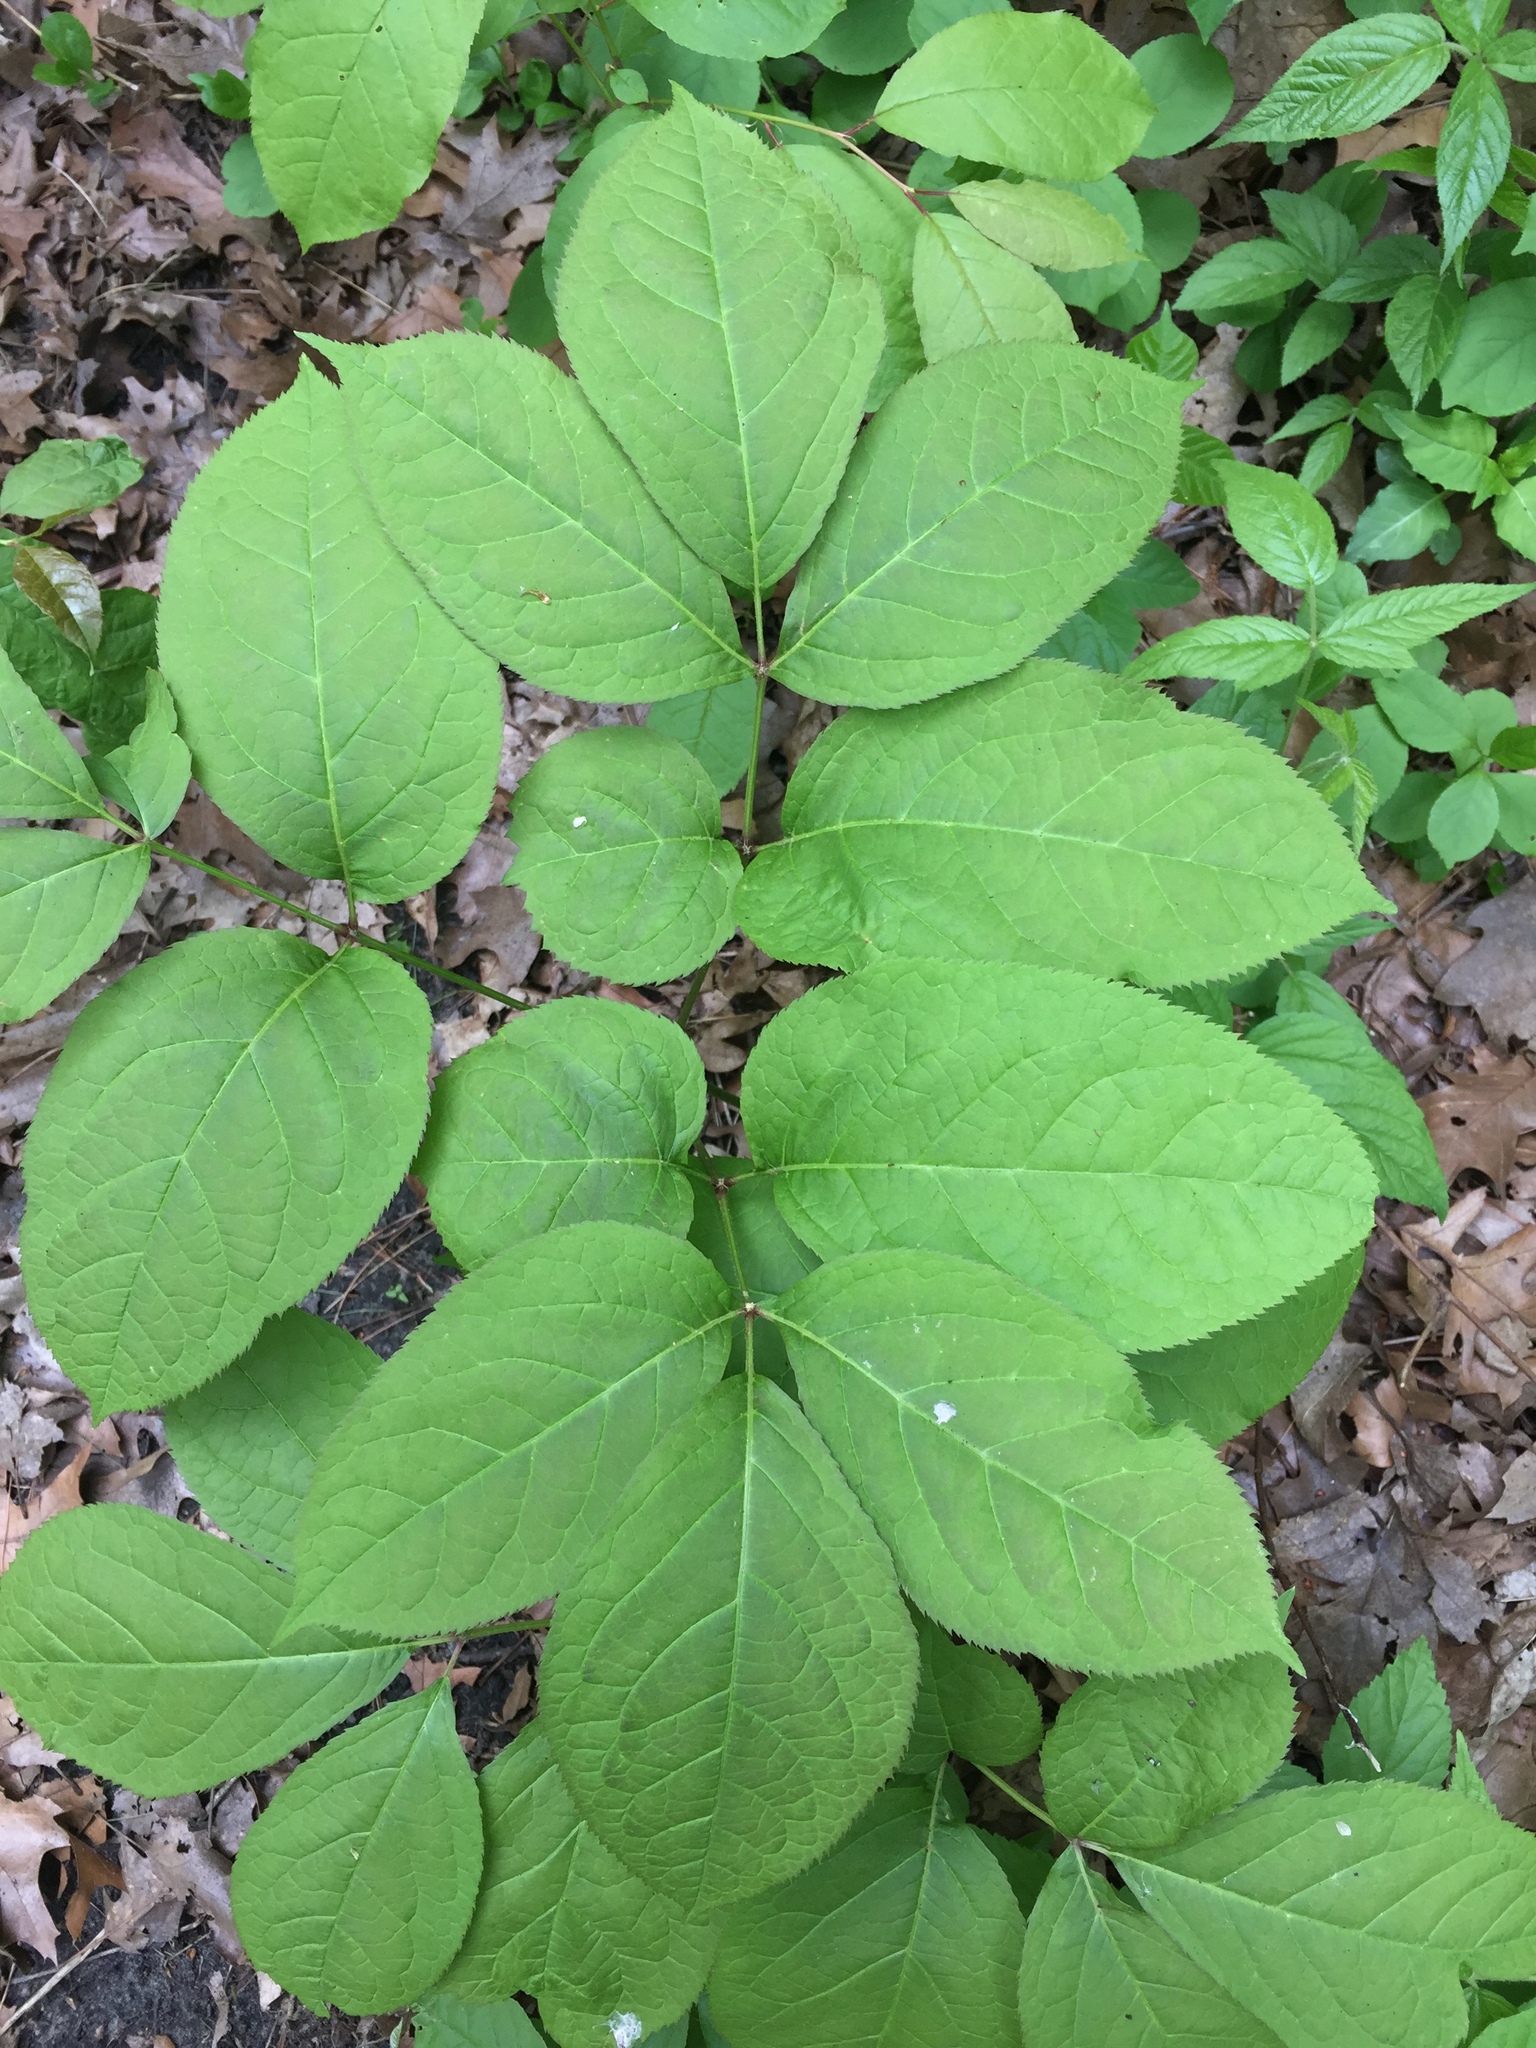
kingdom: Plantae
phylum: Tracheophyta
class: Magnoliopsida
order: Apiales
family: Araliaceae
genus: Aralia
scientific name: Aralia nudicaulis
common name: Wild sarsaparilla
